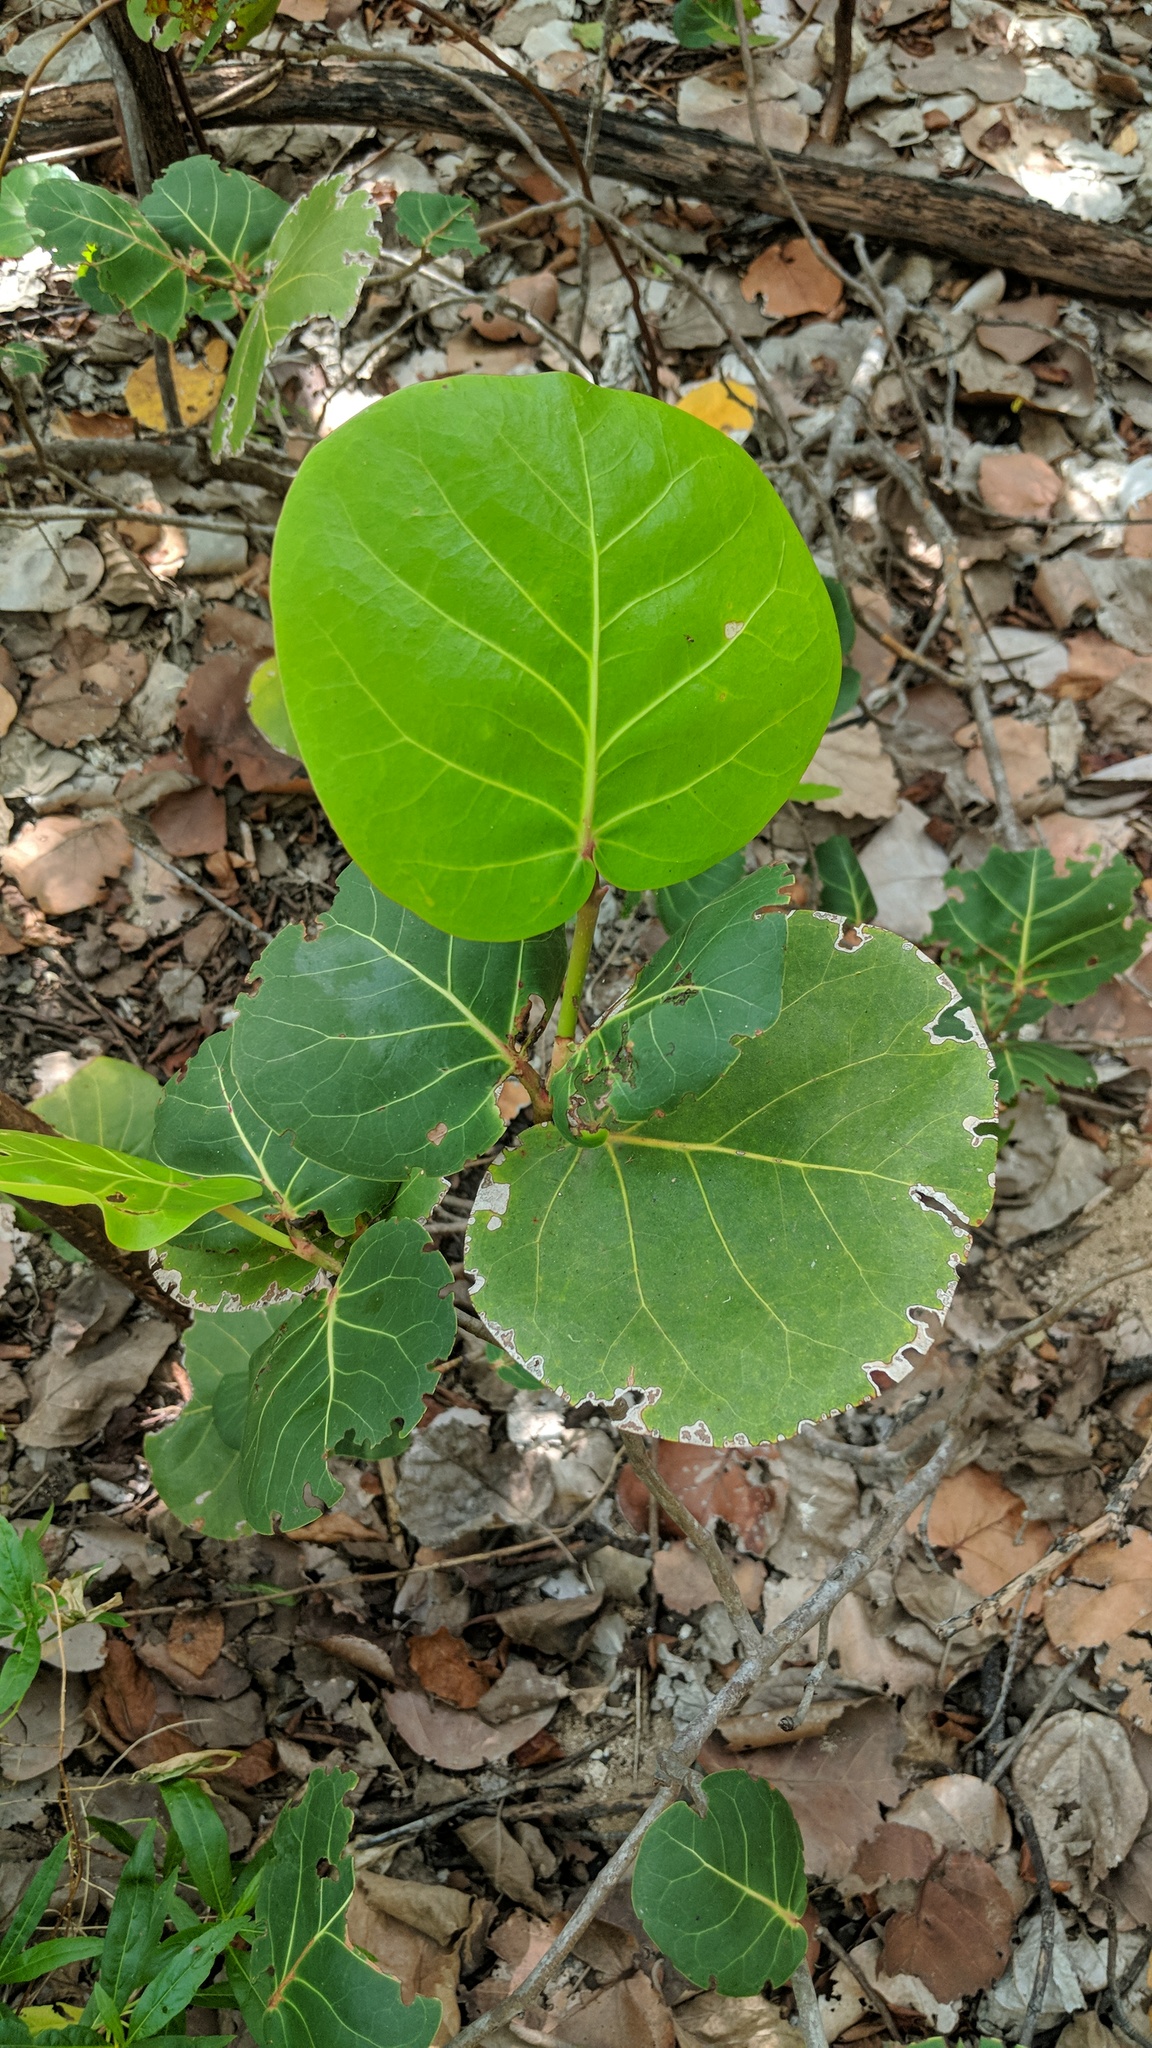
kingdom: Plantae
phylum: Tracheophyta
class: Magnoliopsida
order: Caryophyllales
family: Polygonaceae
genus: Coccoloba
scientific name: Coccoloba uvifera
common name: Seagrape
